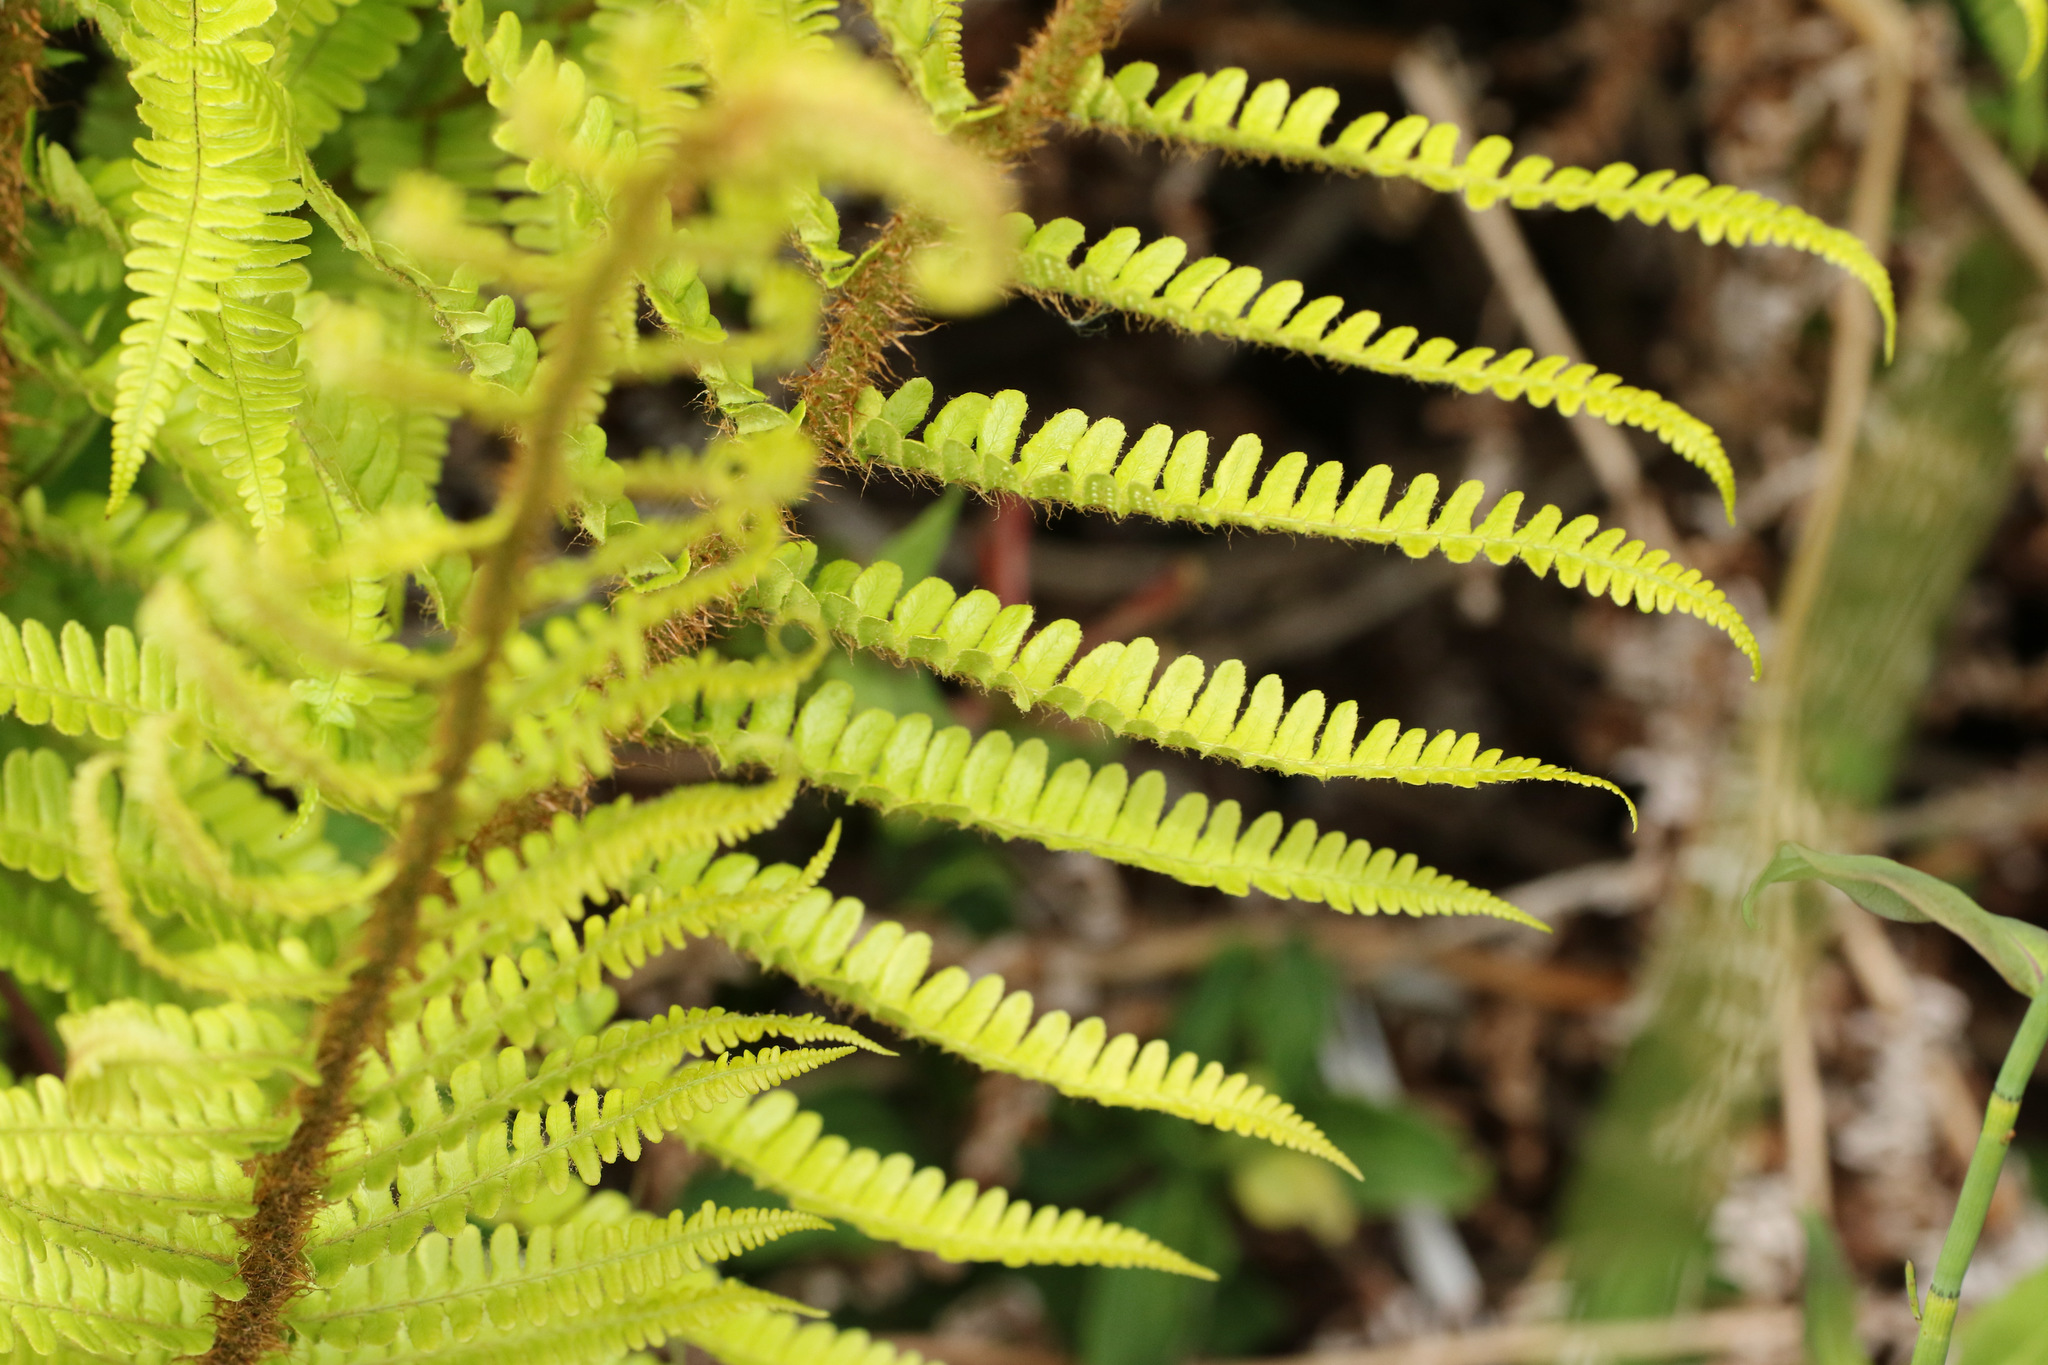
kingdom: Plantae
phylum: Tracheophyta
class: Polypodiopsida
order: Polypodiales
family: Dryopteridaceae
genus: Dryopteris
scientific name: Dryopteris affinis
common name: Scaly male fern
